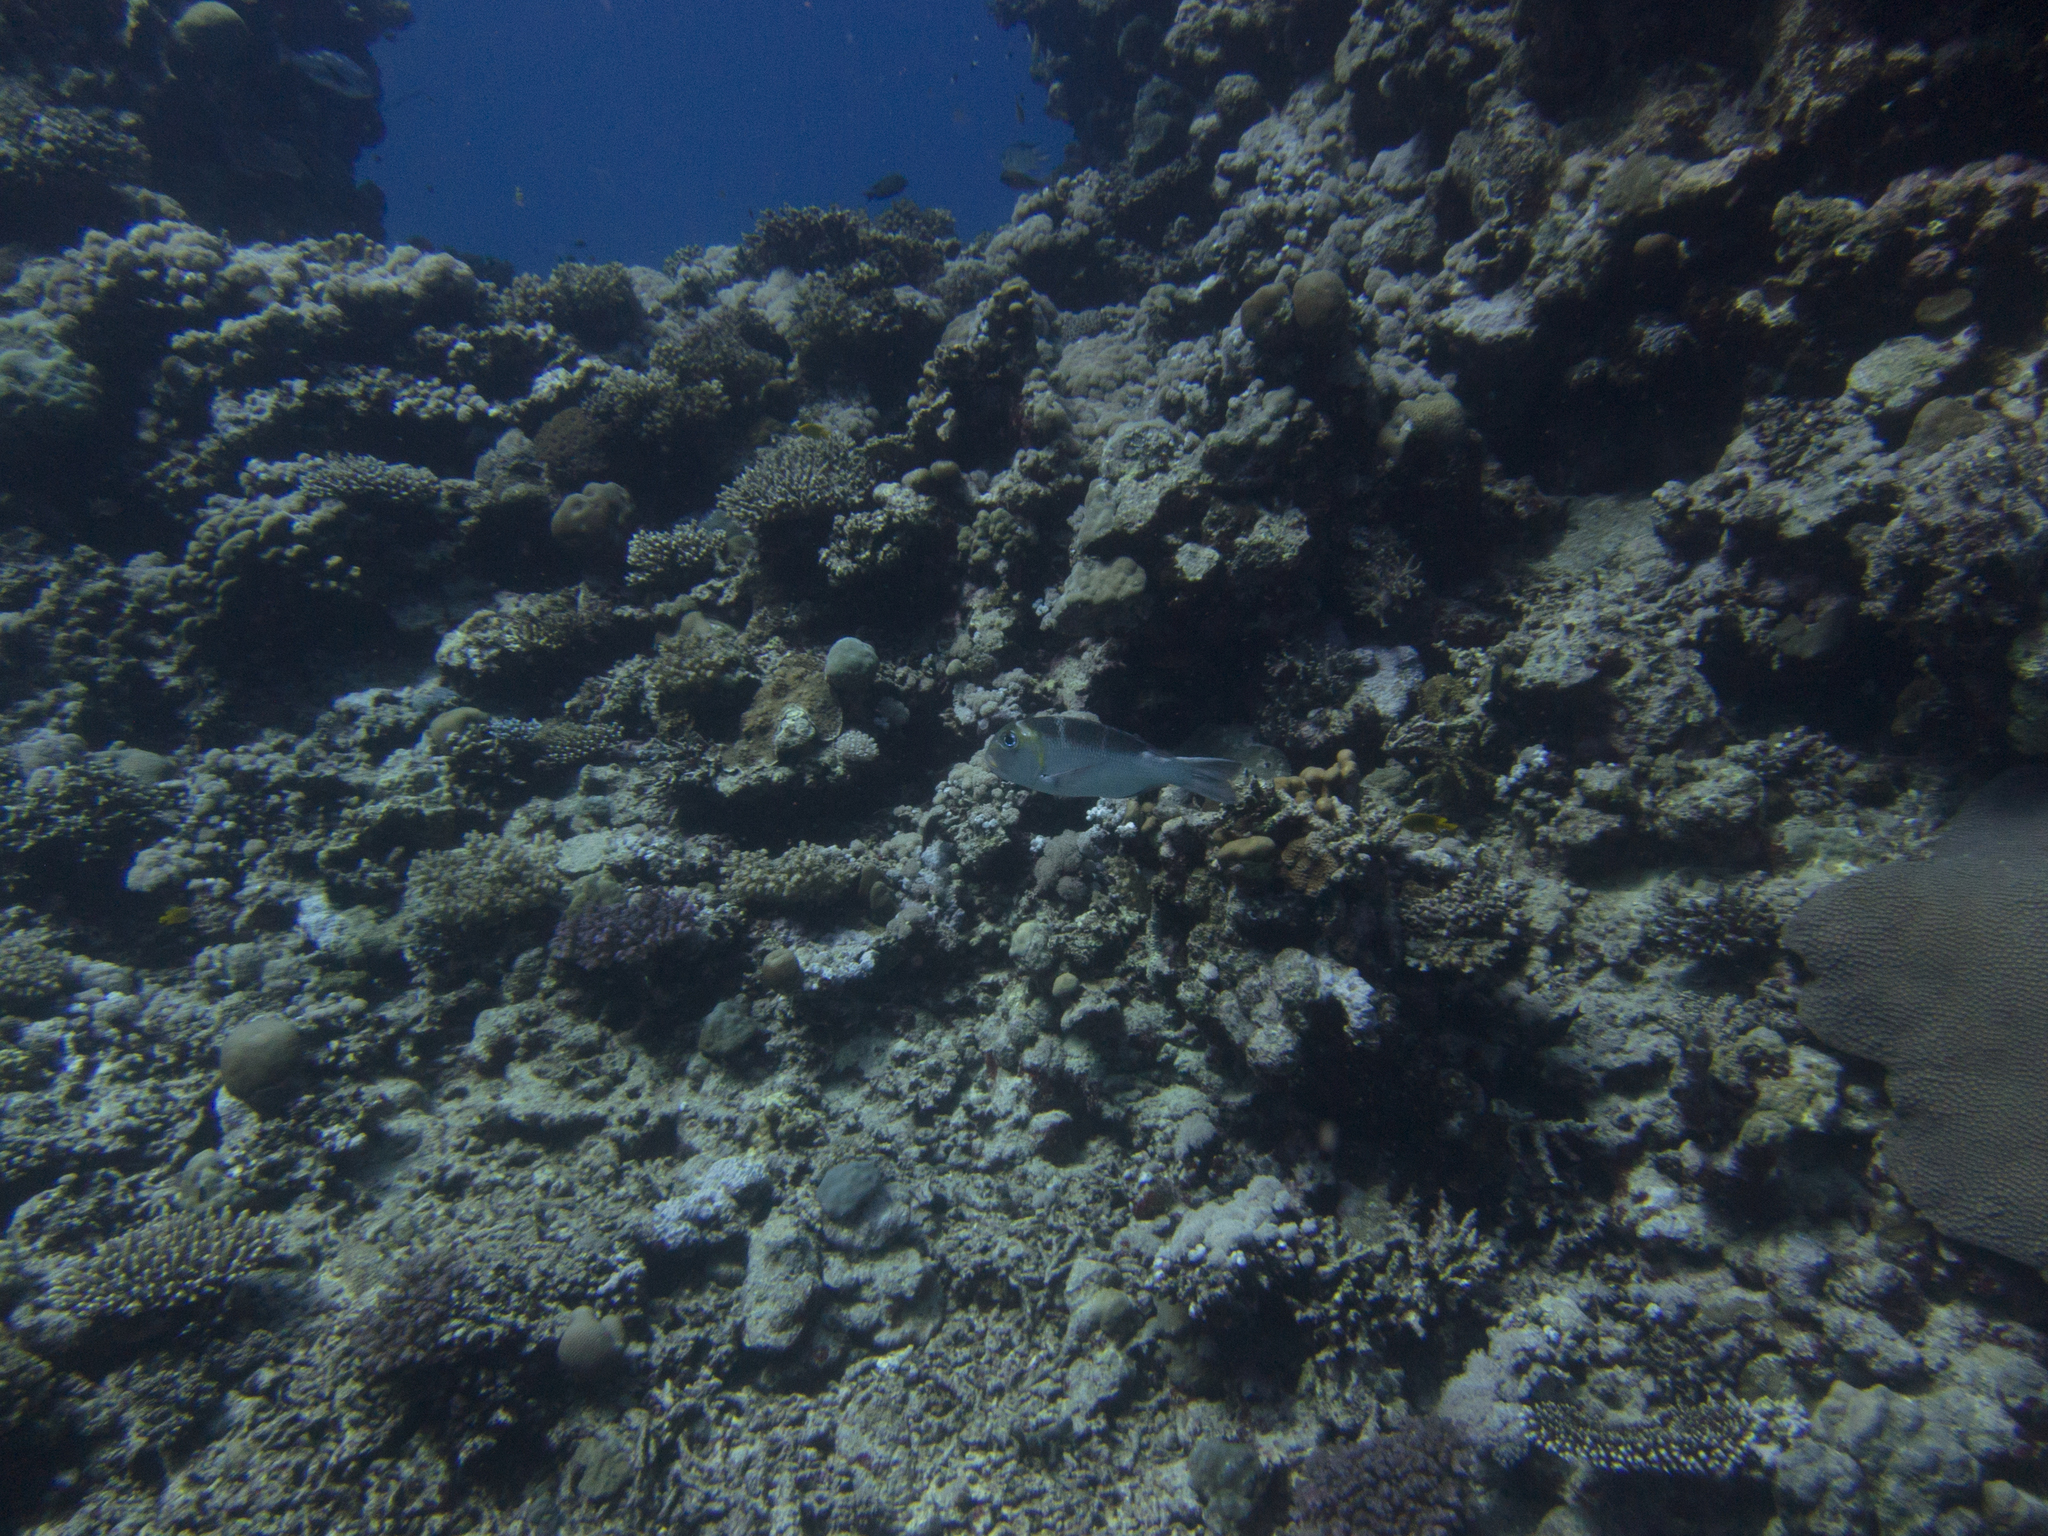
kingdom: Animalia
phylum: Chordata
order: Perciformes
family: Lethrinidae
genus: Monotaxis
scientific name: Monotaxis grandoculis
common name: Bigeye emperor
